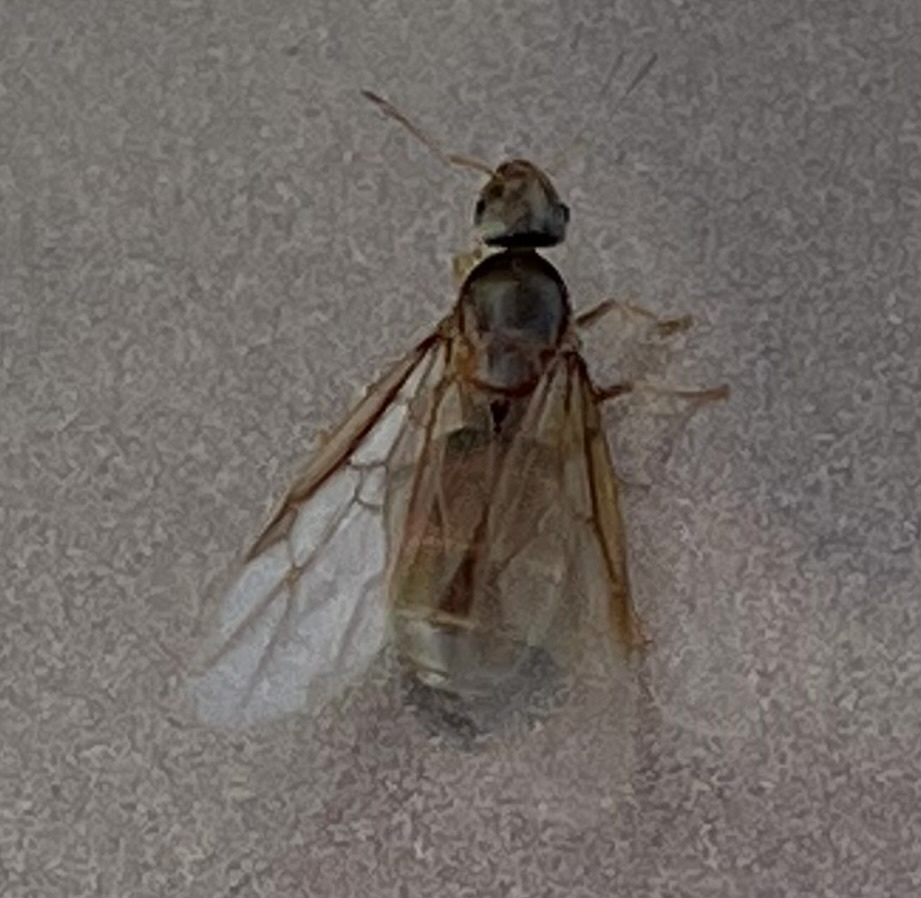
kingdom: Animalia
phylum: Arthropoda
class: Insecta
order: Hymenoptera
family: Formicidae
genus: Lasius
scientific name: Lasius neoniger
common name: Turfgrass ant
